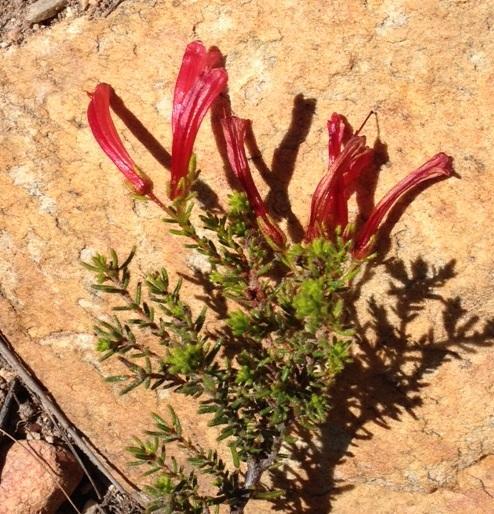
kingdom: Plantae
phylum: Tracheophyta
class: Magnoliopsida
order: Ericales
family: Ericaceae
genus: Erica
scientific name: Erica glandulosa
